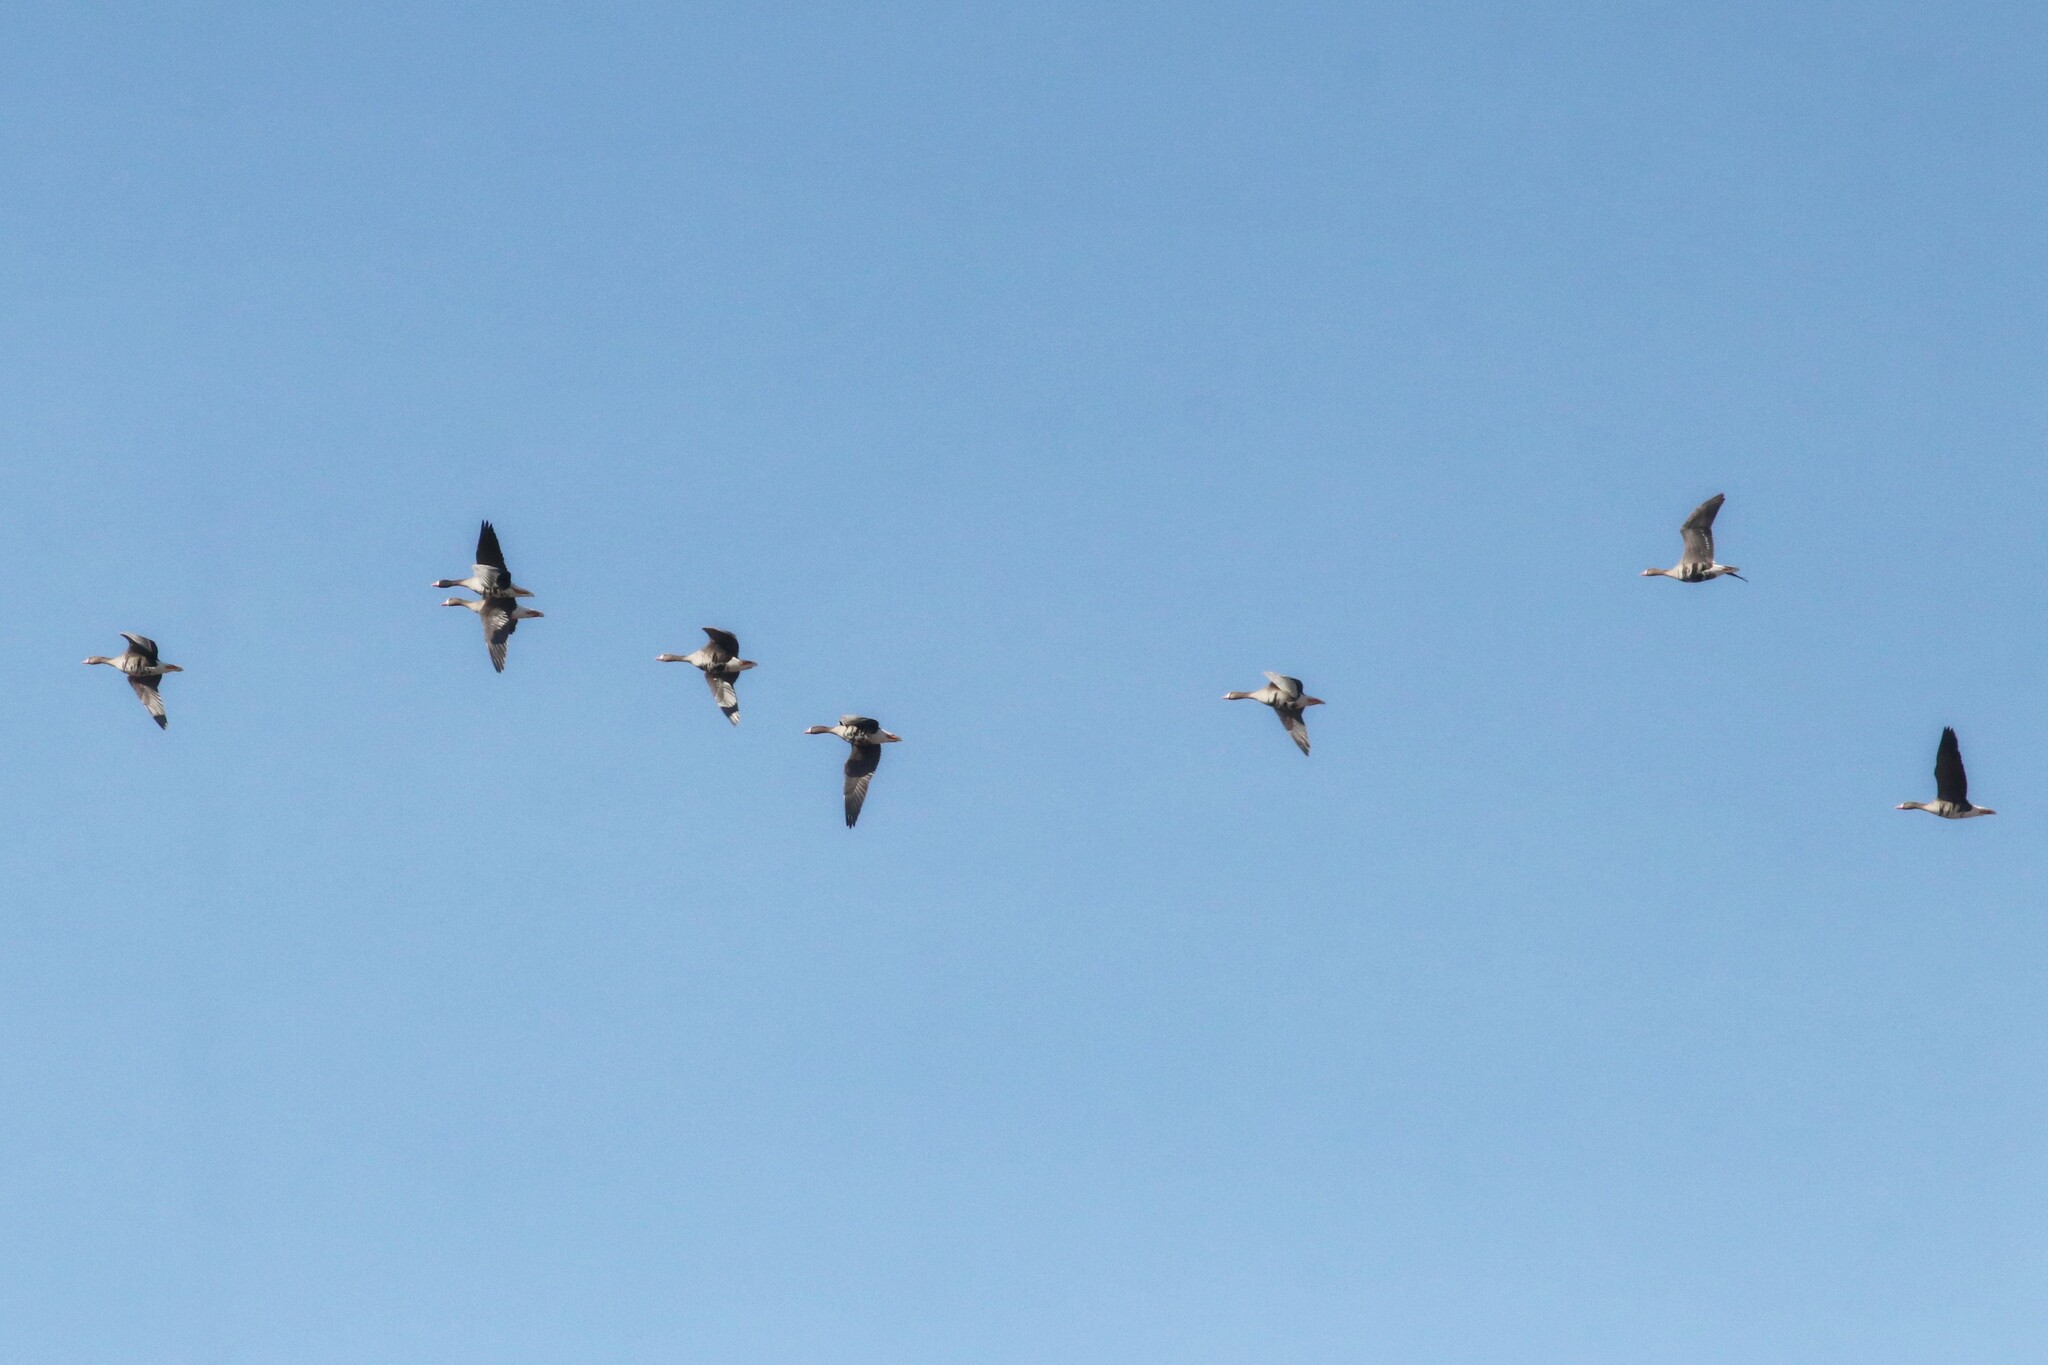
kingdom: Animalia
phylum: Chordata
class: Aves
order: Anseriformes
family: Anatidae
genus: Anser
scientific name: Anser albifrons
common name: Greater white-fronted goose
